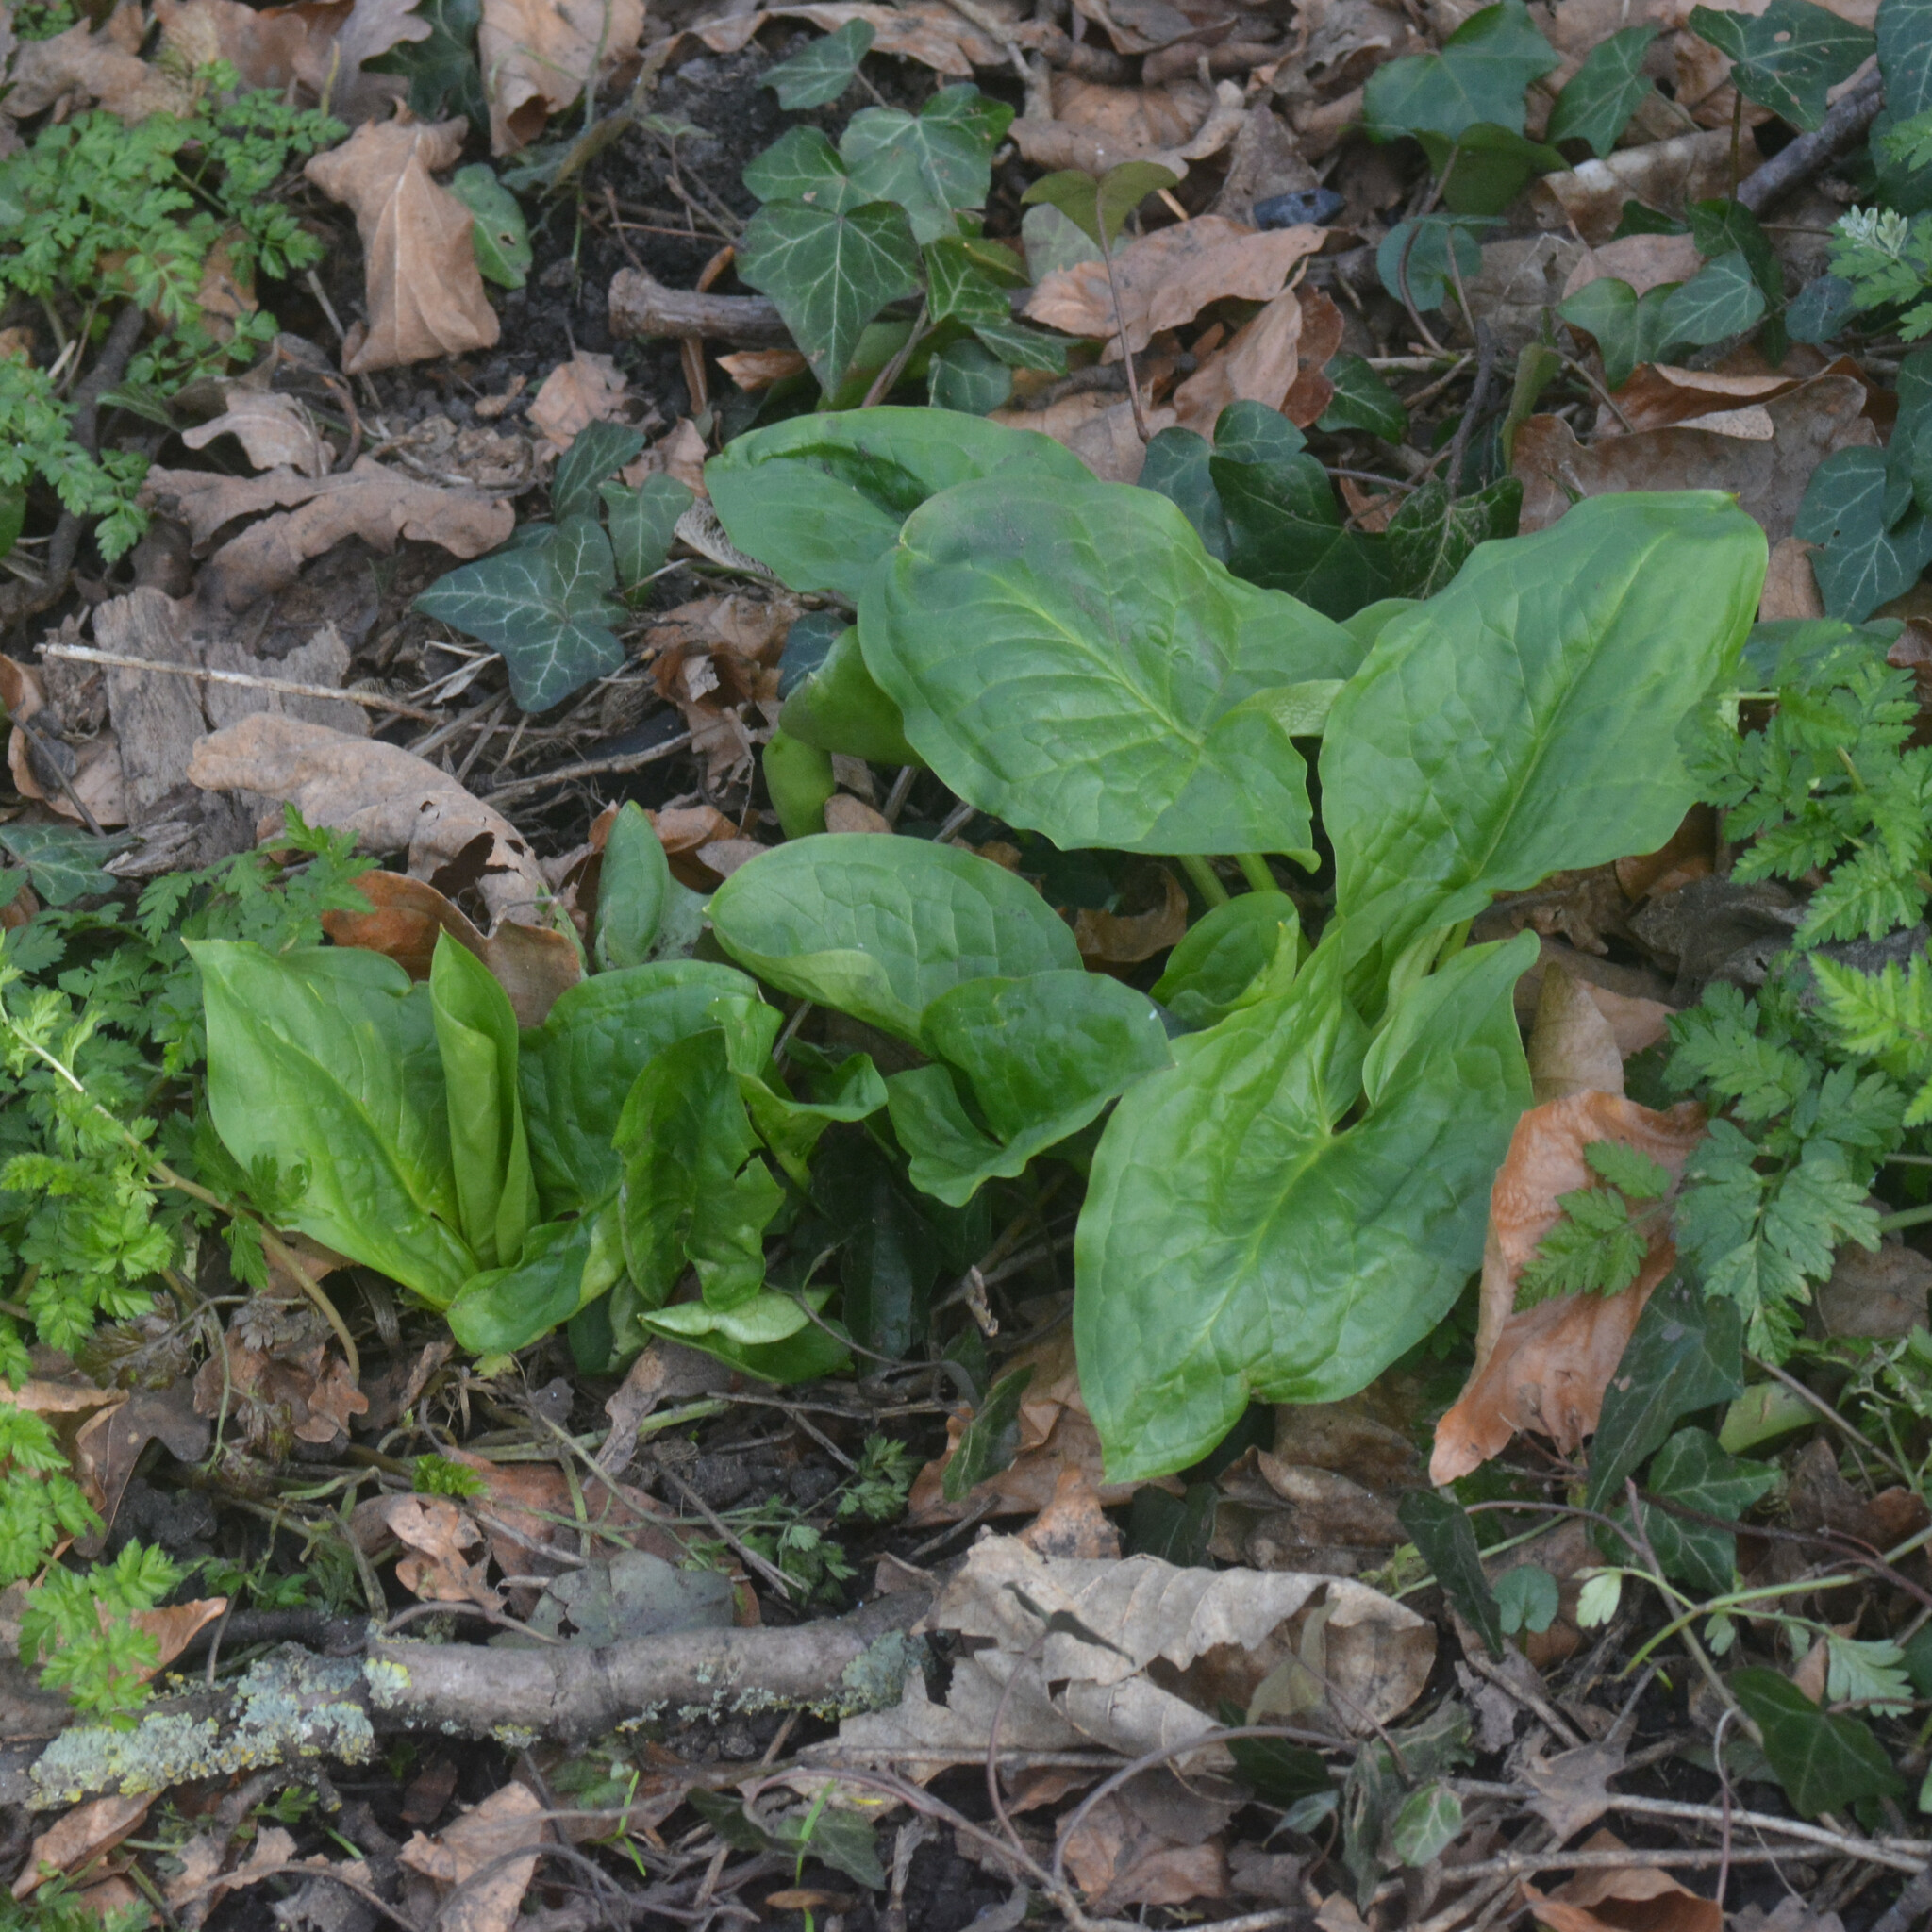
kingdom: Plantae
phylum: Tracheophyta
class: Liliopsida
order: Alismatales
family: Araceae
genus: Arum
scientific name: Arum maculatum
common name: Lords-and-ladies
